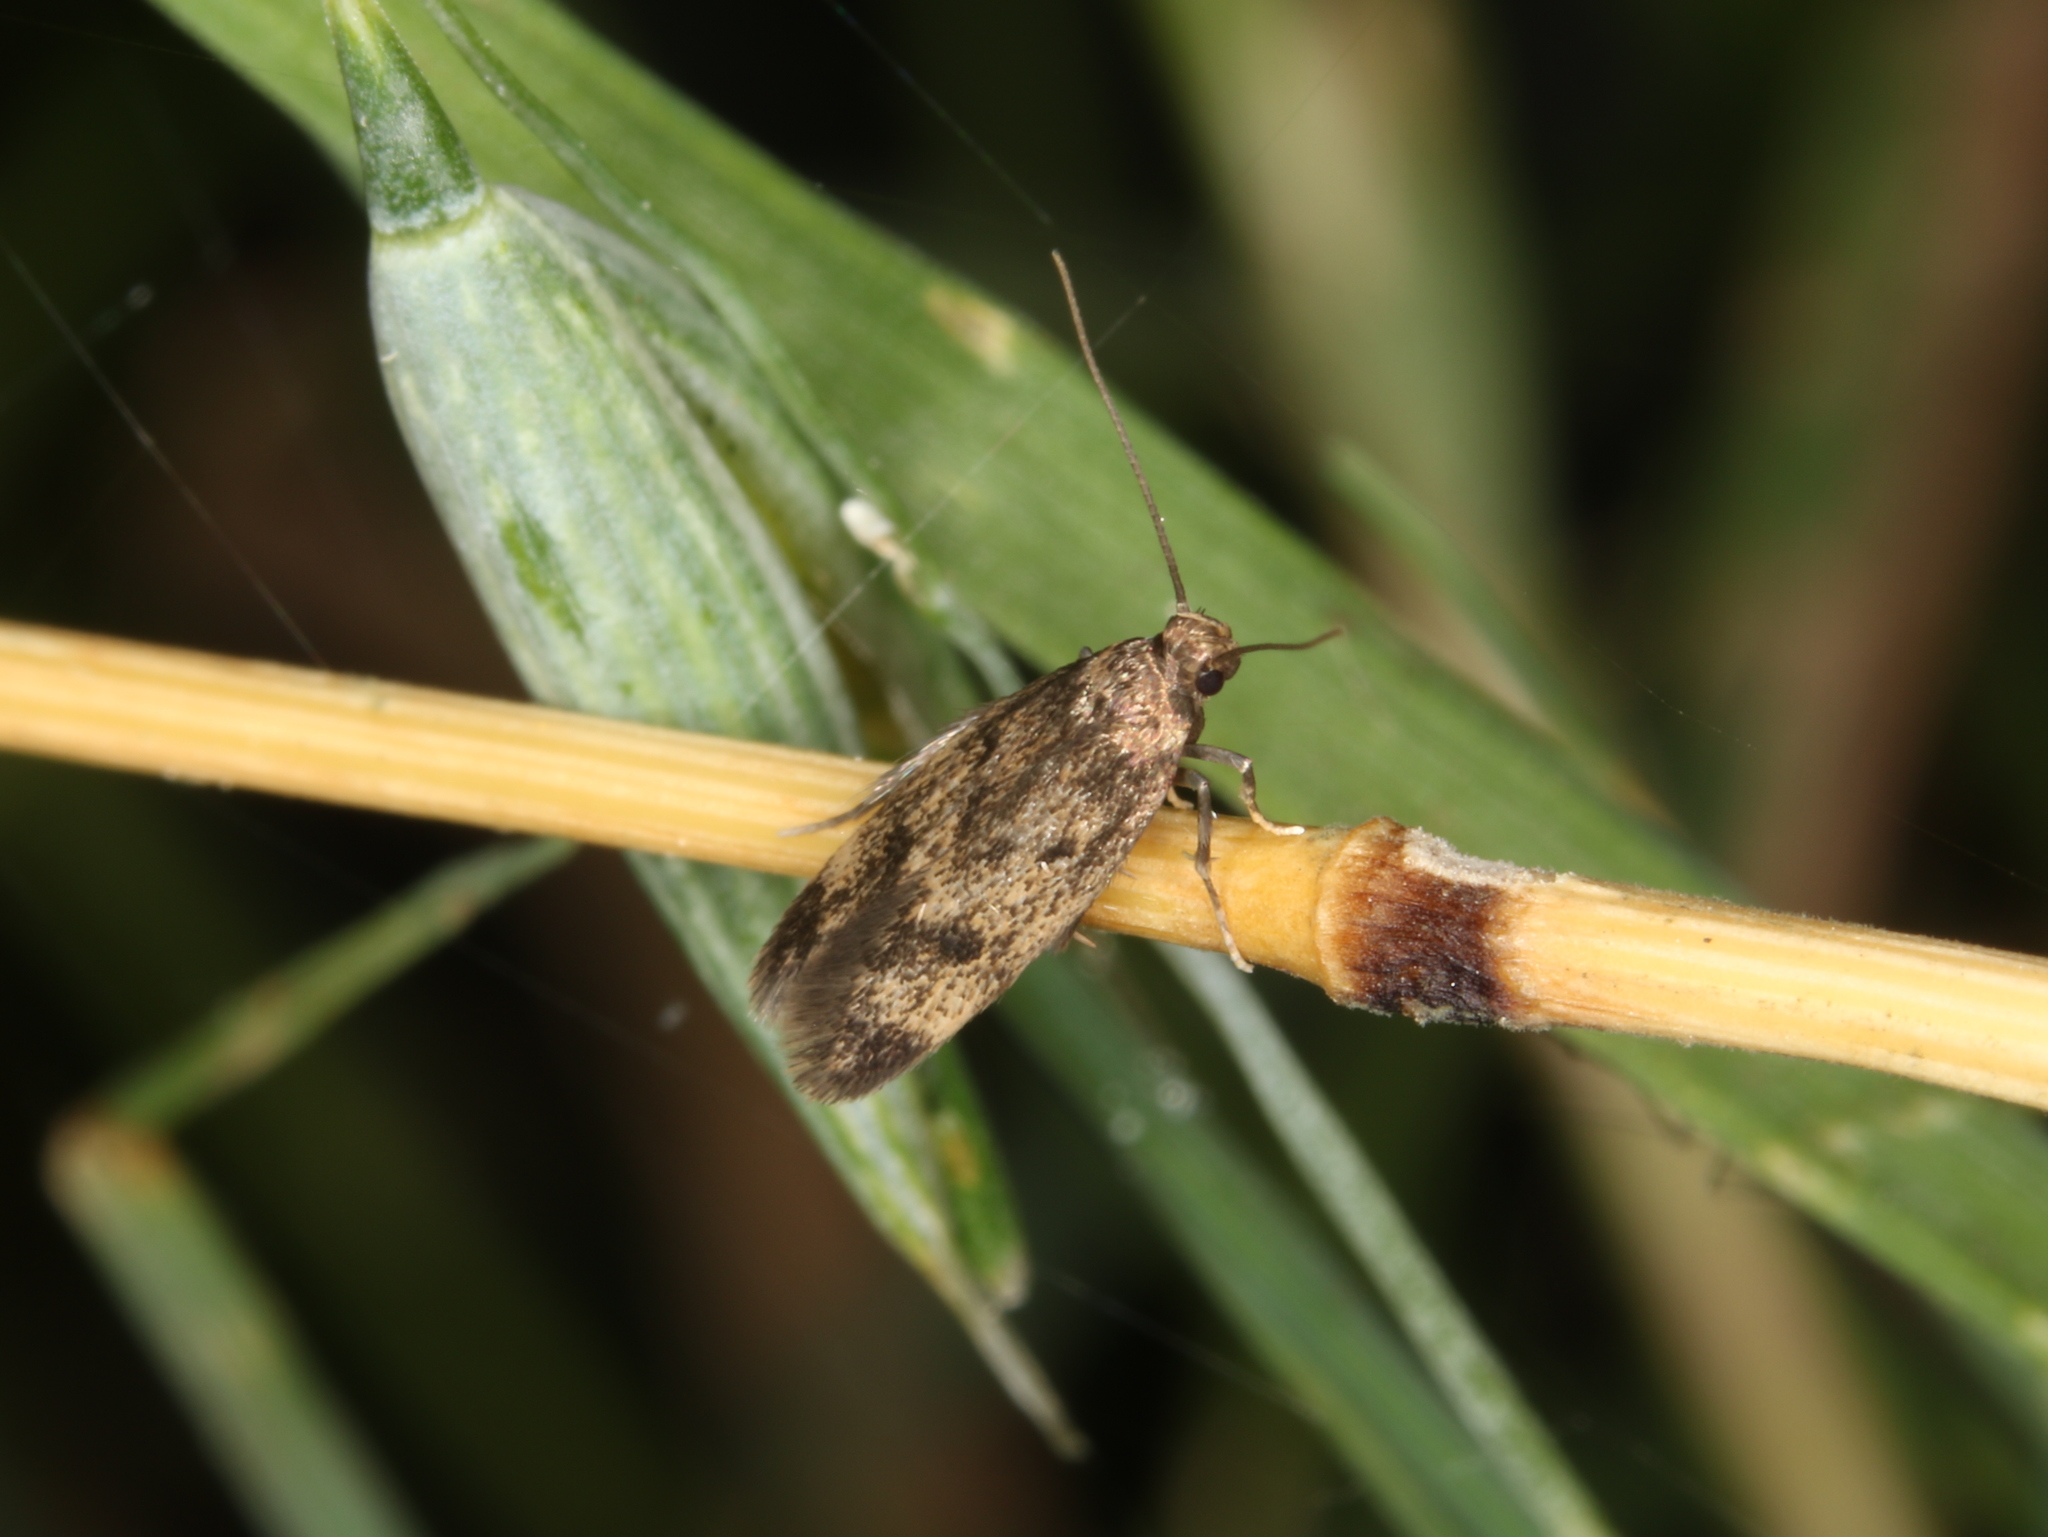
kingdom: Animalia
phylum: Arthropoda
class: Insecta
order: Lepidoptera
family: Oecophoridae
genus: Borkhausenia
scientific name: Borkhausenia fuscescens
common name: Small dingy tubic
